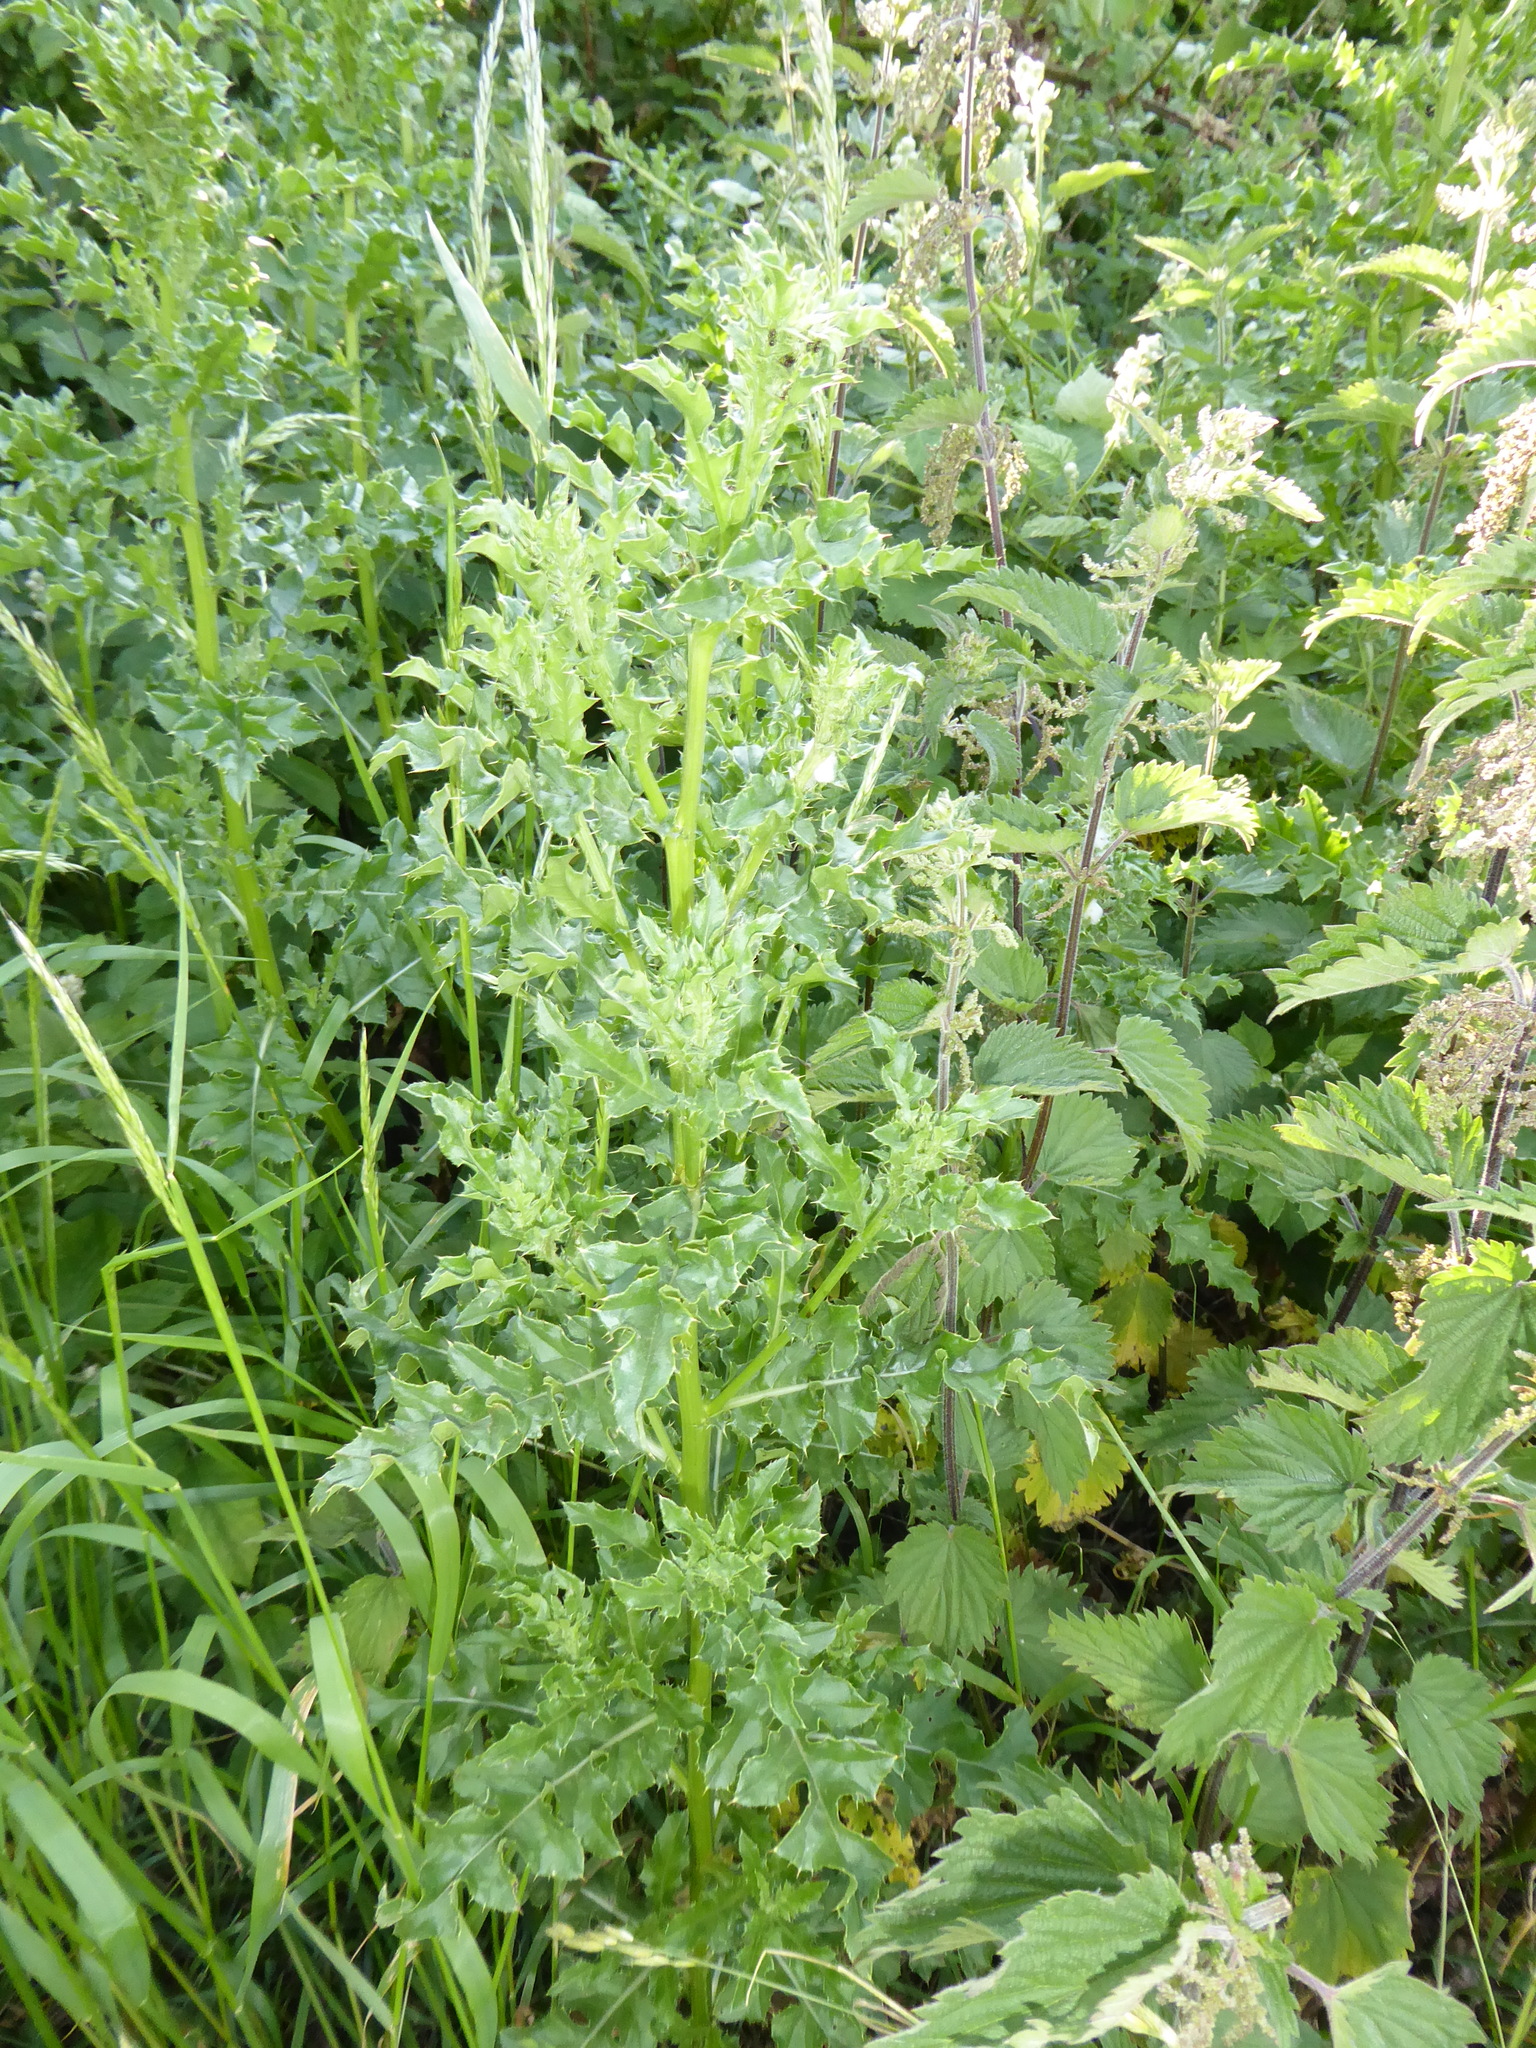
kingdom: Plantae
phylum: Tracheophyta
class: Magnoliopsida
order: Asterales
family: Asteraceae
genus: Cirsium
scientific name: Cirsium arvense
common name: Creeping thistle
